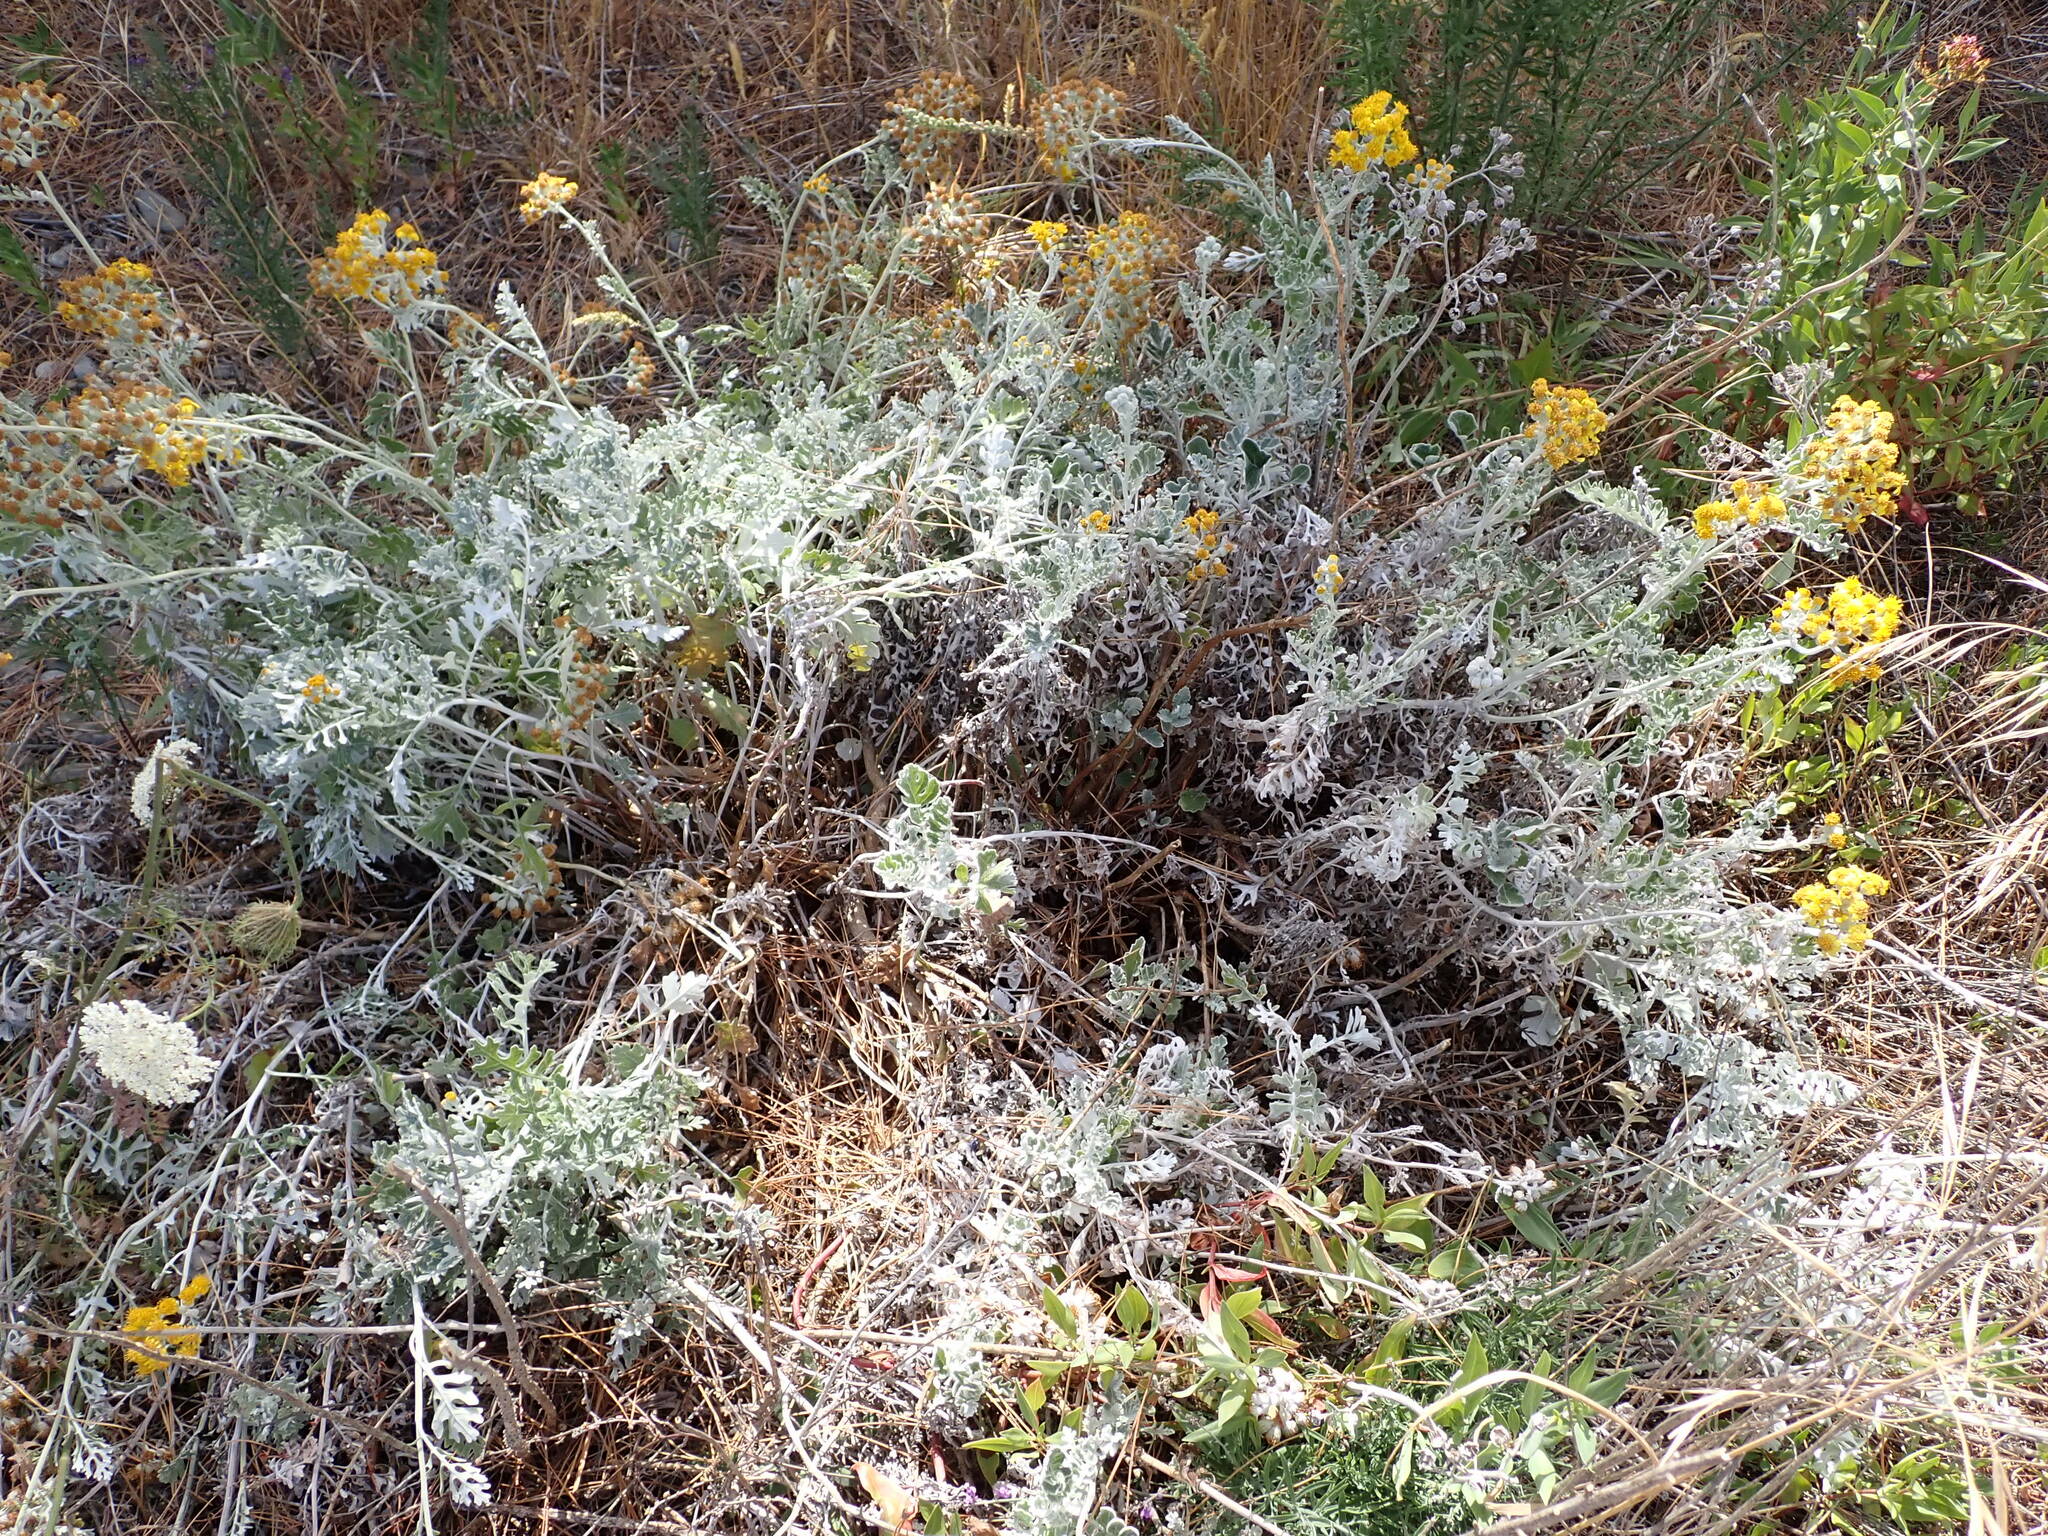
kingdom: Plantae
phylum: Tracheophyta
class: Magnoliopsida
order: Asterales
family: Asteraceae
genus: Jacobaea
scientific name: Jacobaea maritima
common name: Silver ragwort
